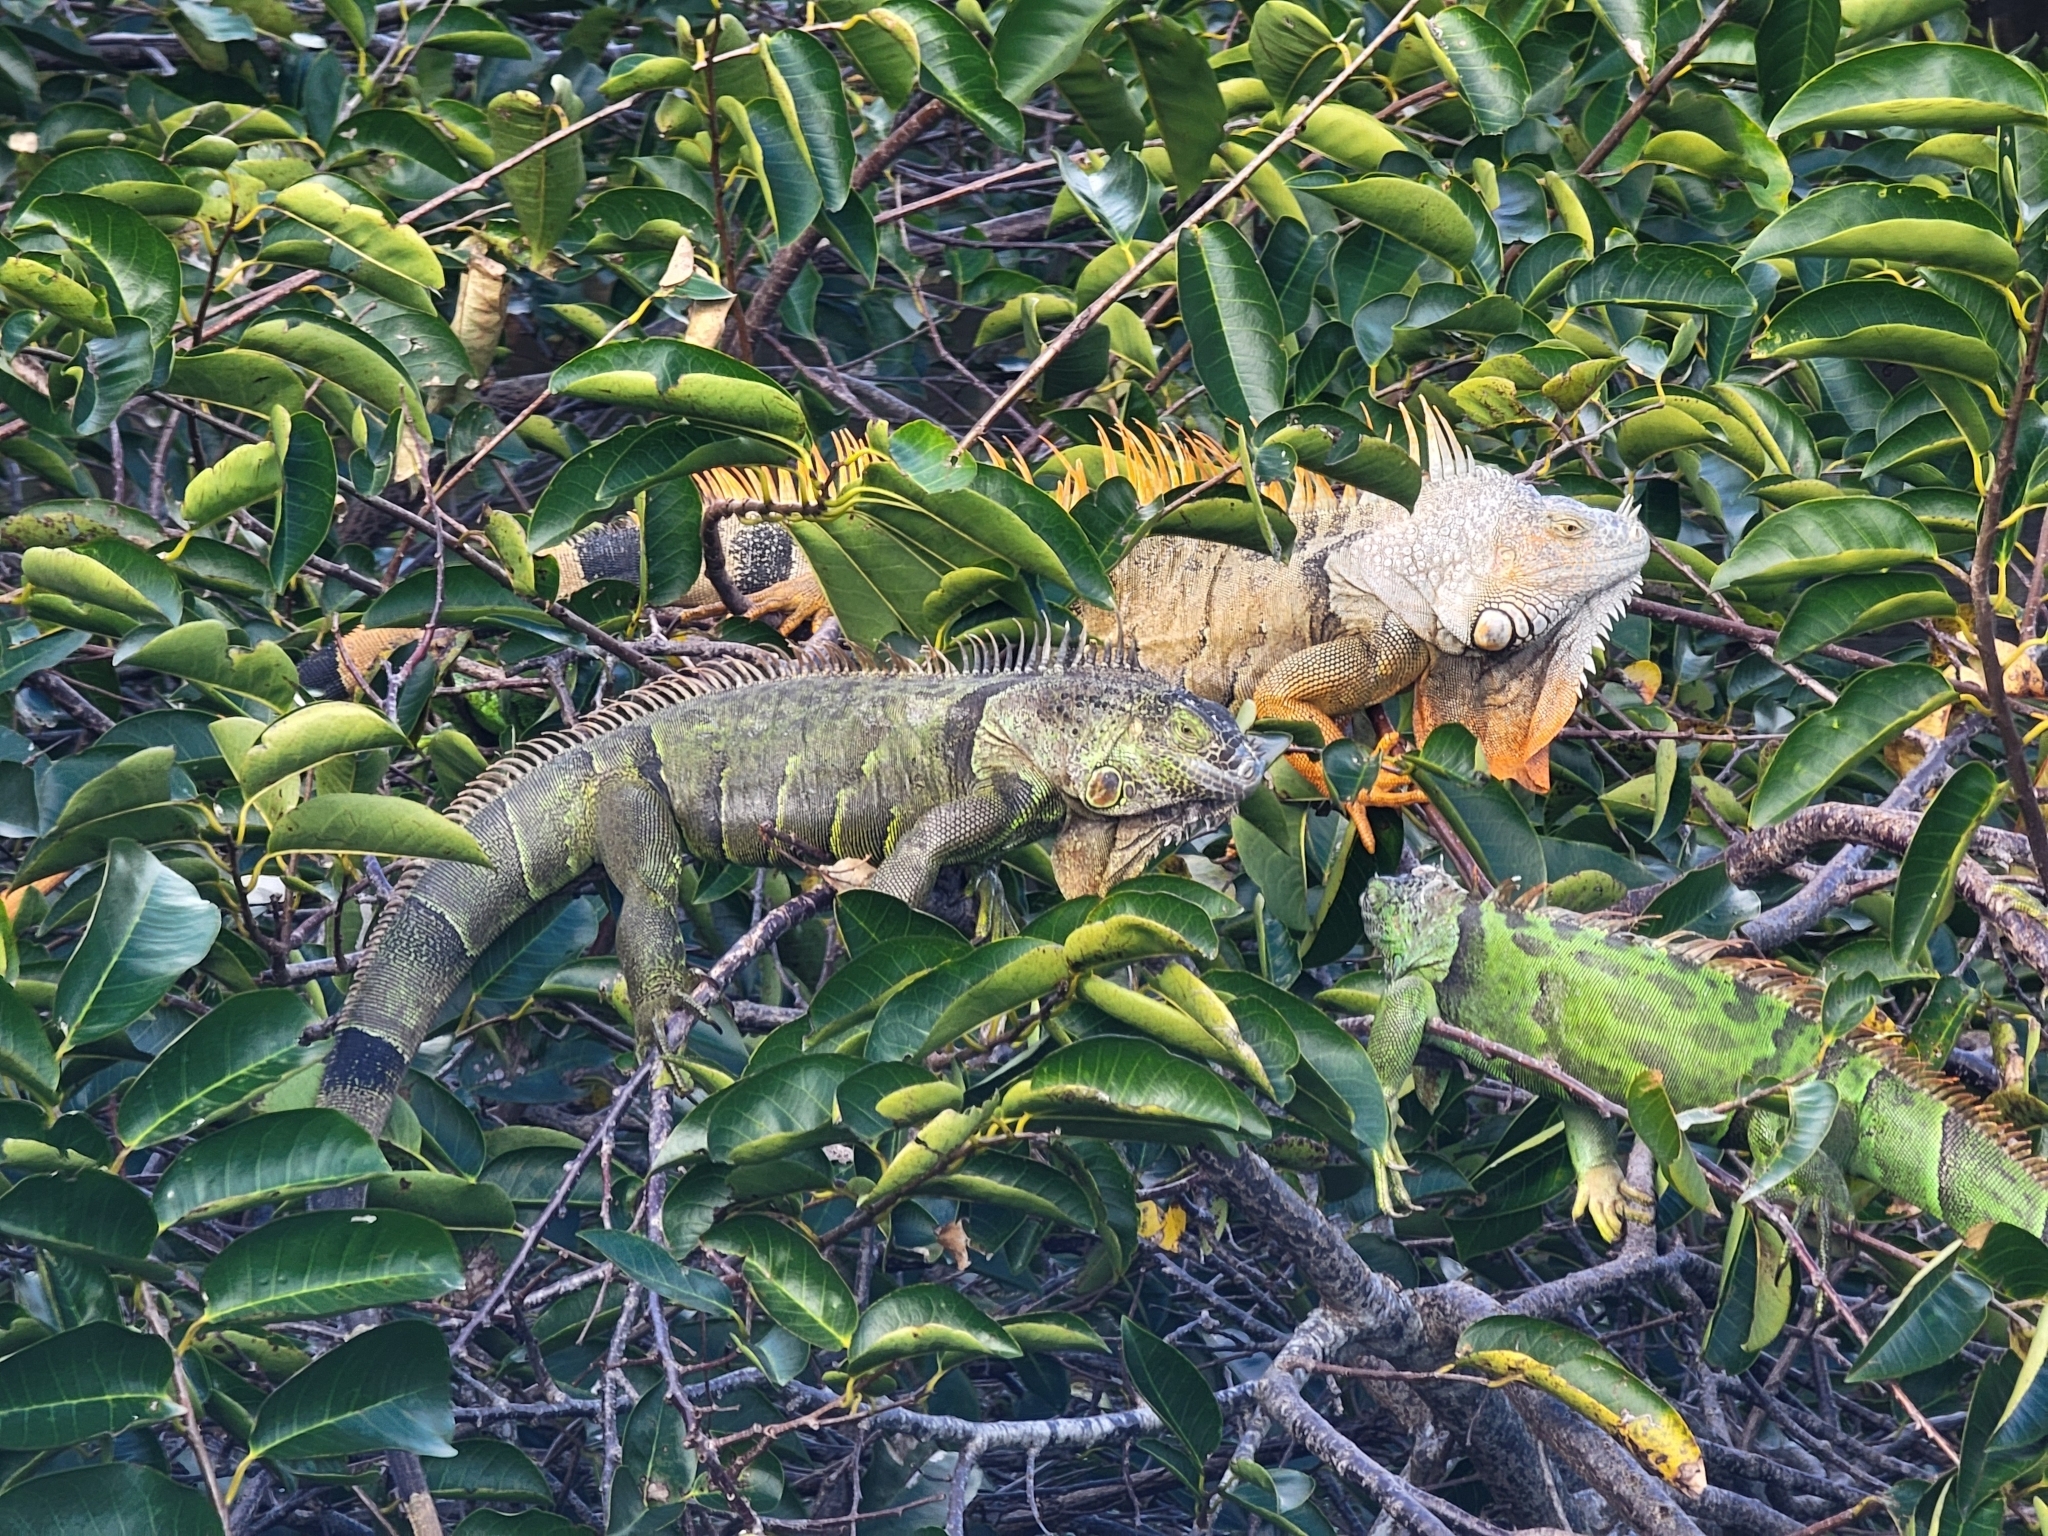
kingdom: Animalia
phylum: Chordata
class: Squamata
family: Iguanidae
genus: Iguana
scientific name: Iguana iguana
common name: Green iguana
